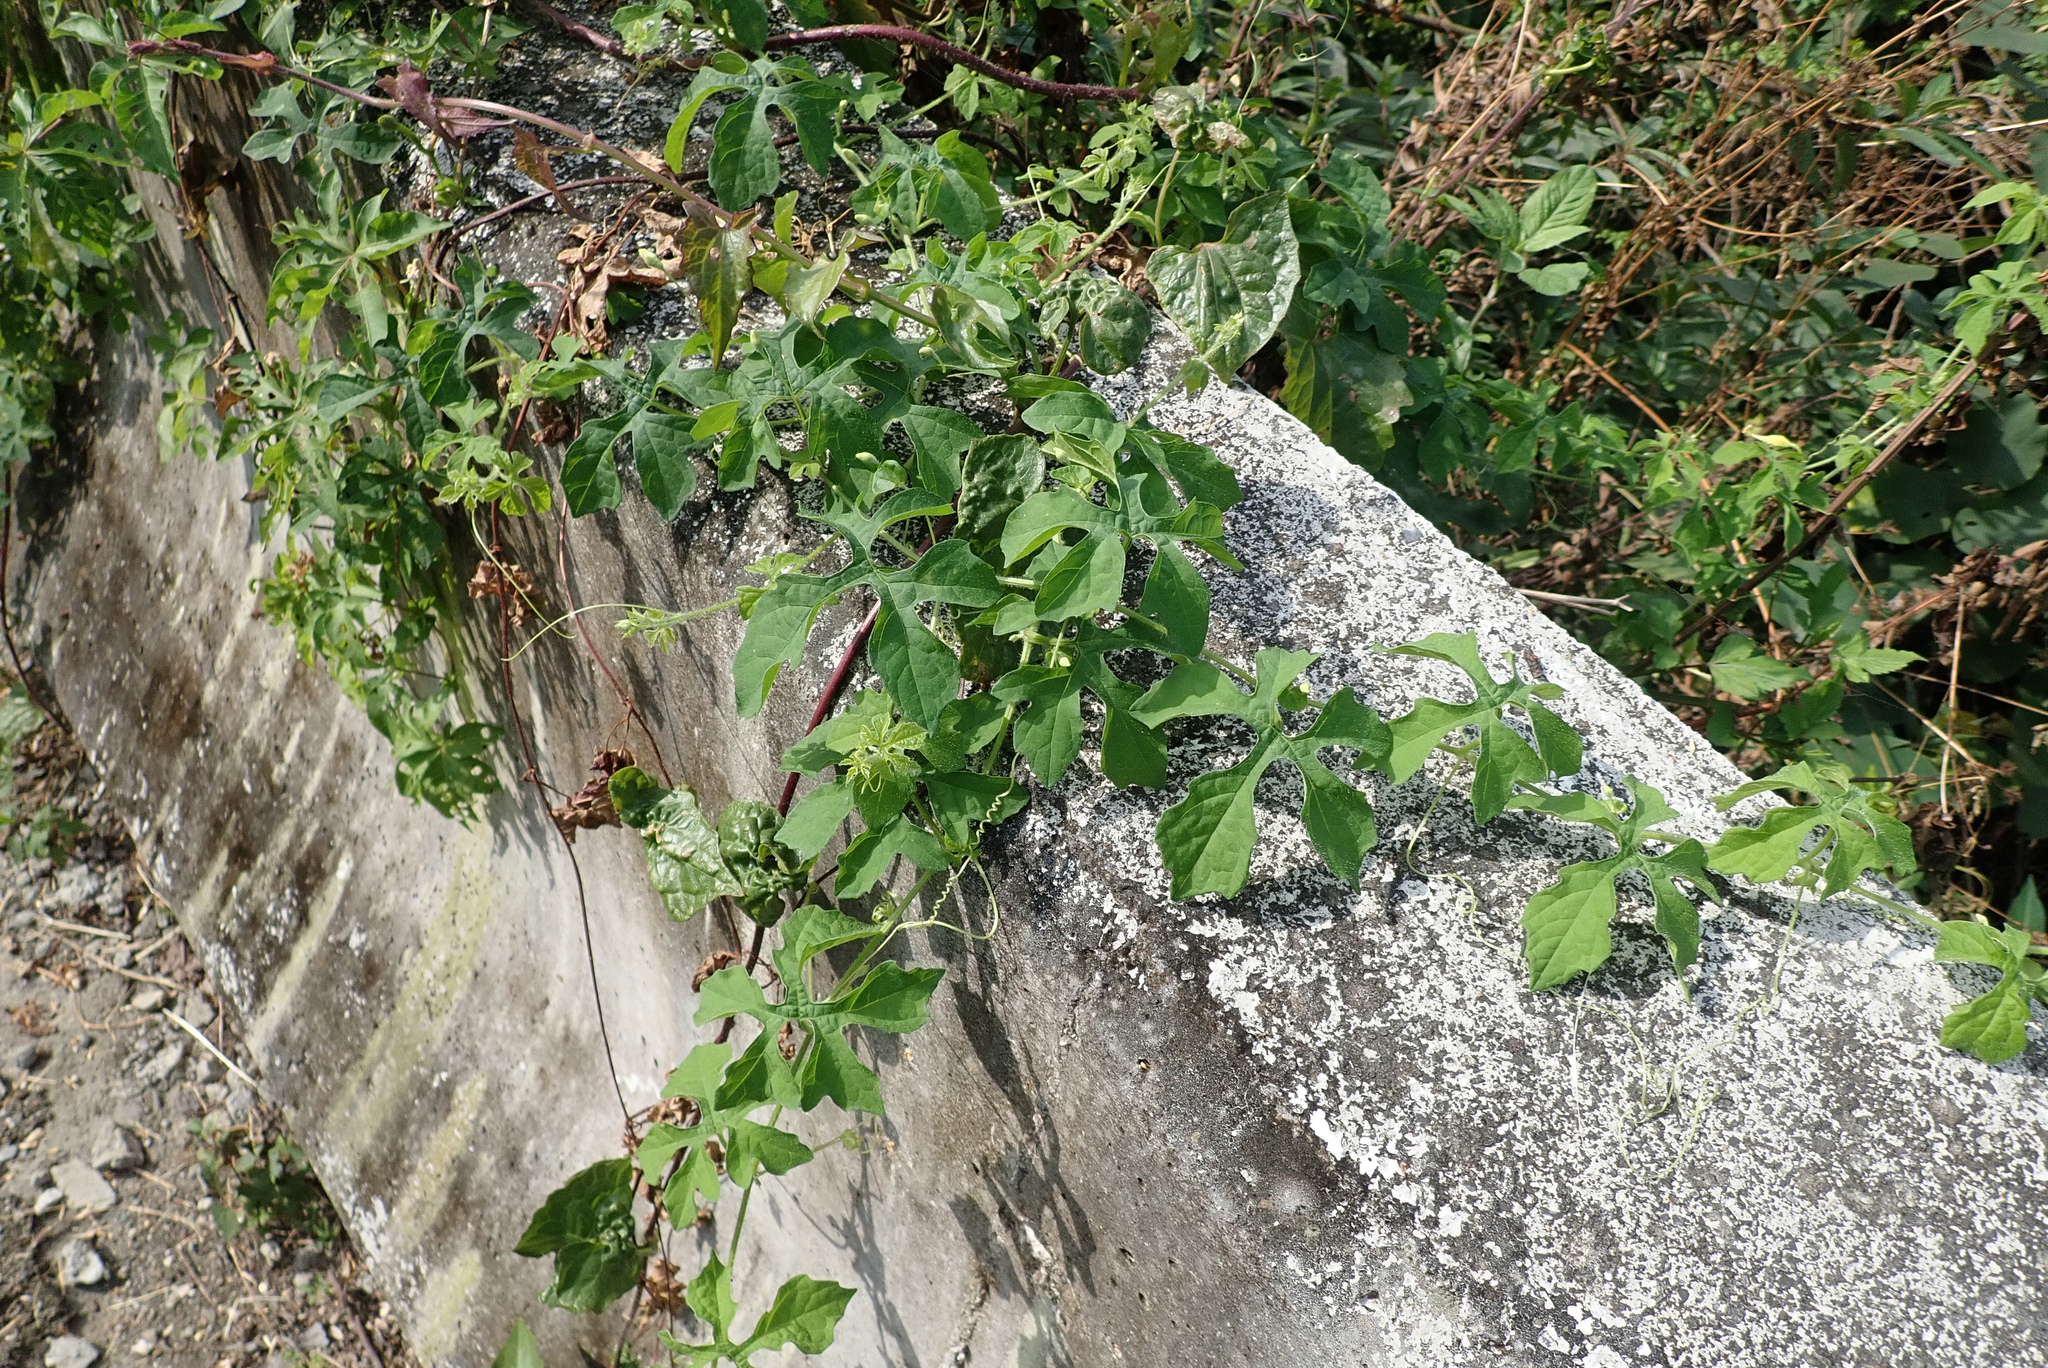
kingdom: Plantae
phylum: Tracheophyta
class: Magnoliopsida
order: Cucurbitales
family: Cucurbitaceae
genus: Momordica
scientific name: Momordica charantia
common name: Balsampear
